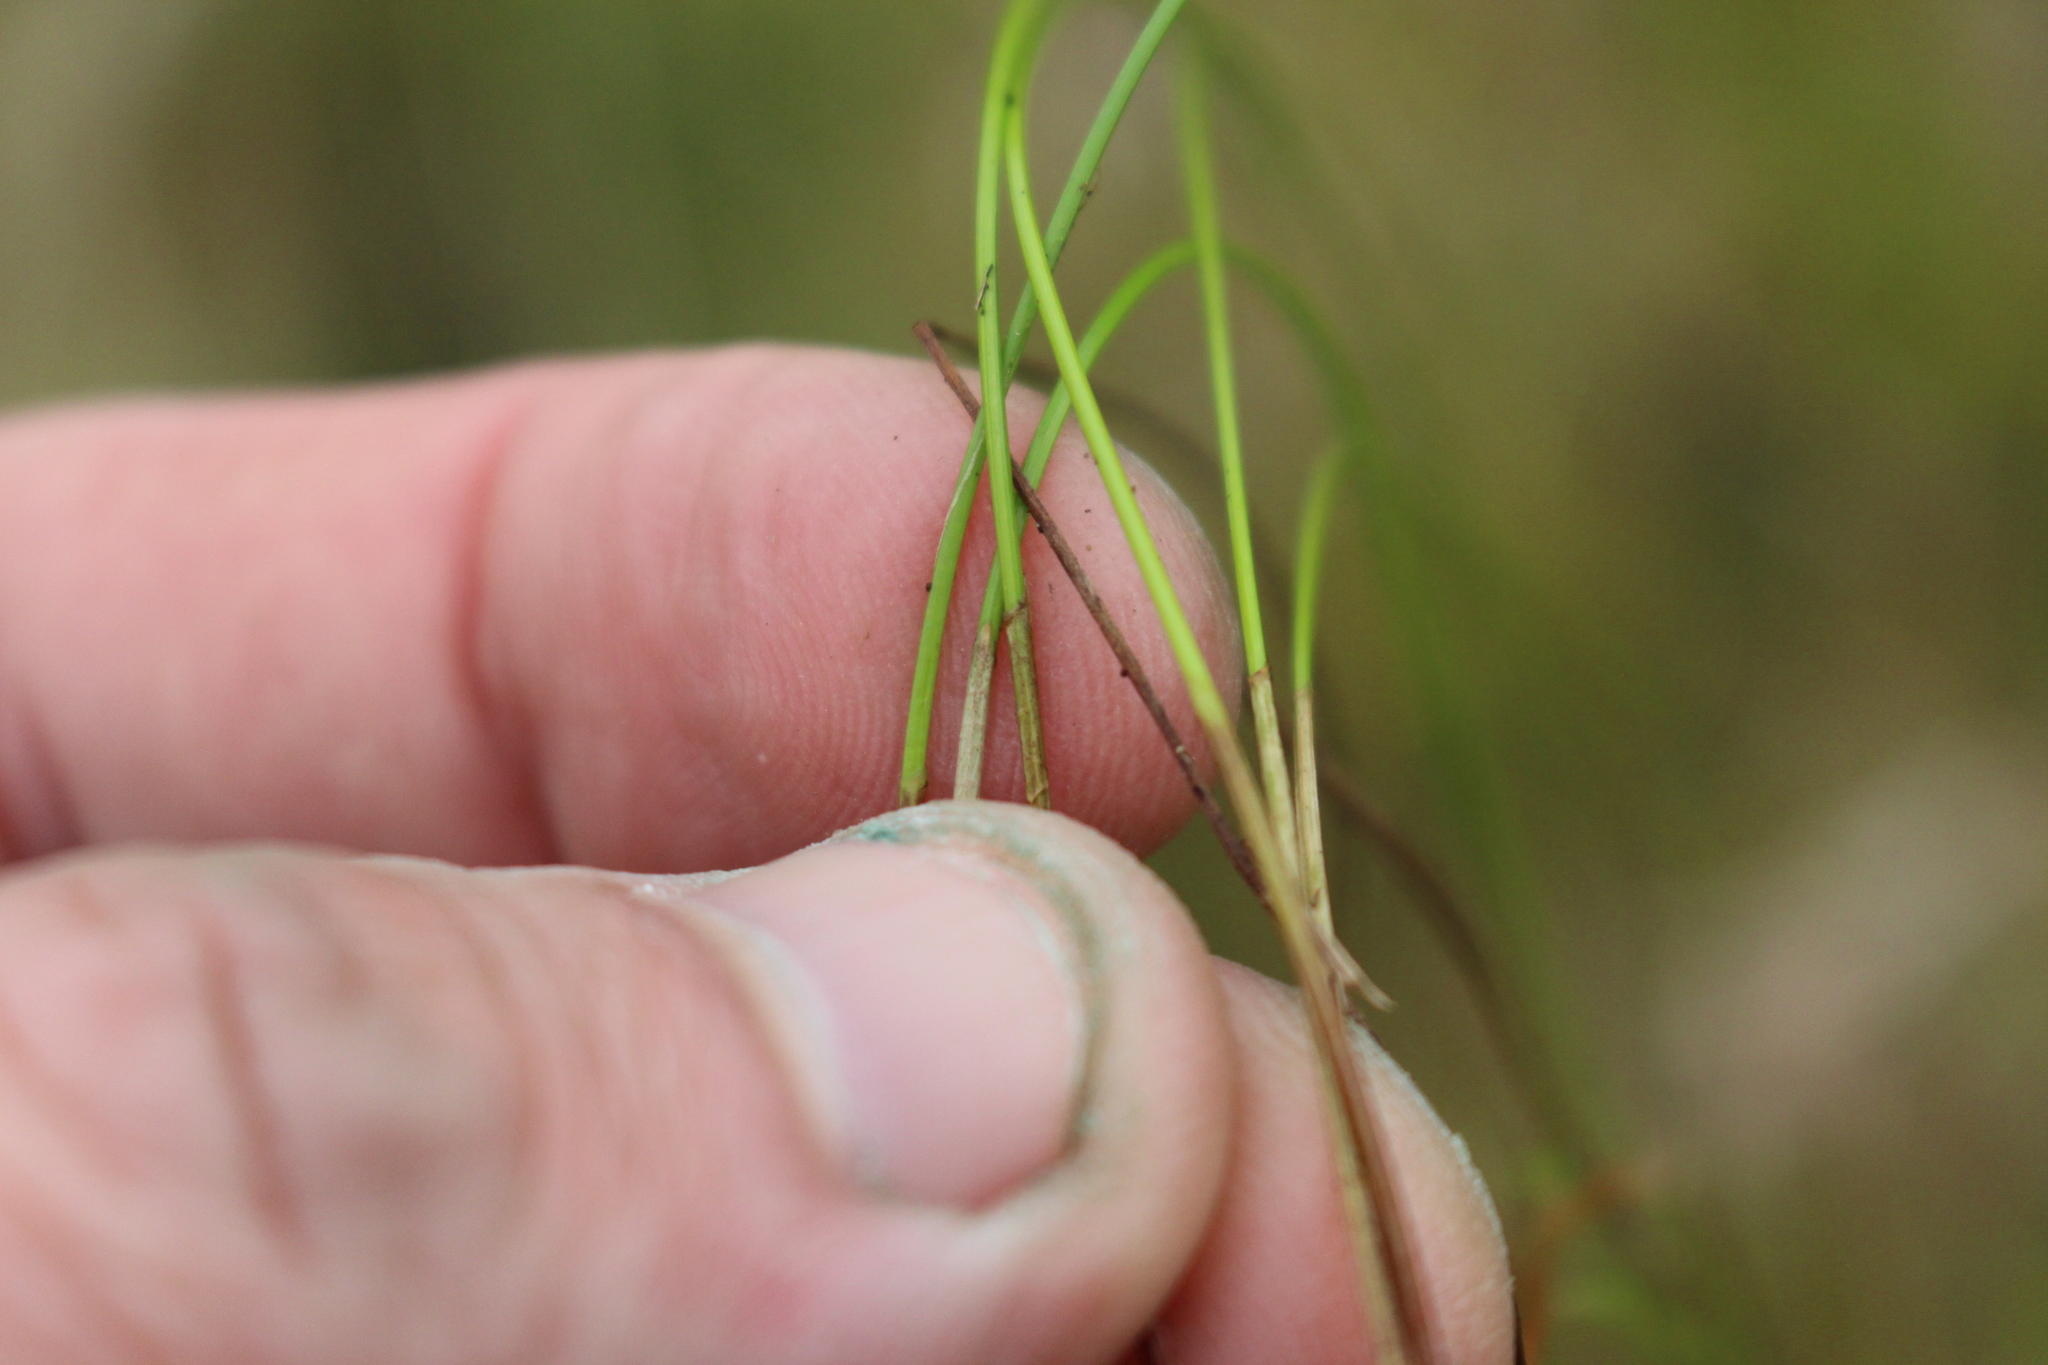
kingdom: Plantae
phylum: Tracheophyta
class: Liliopsida
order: Poales
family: Cyperaceae
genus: Eleocharis
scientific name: Eleocharis gracilis
